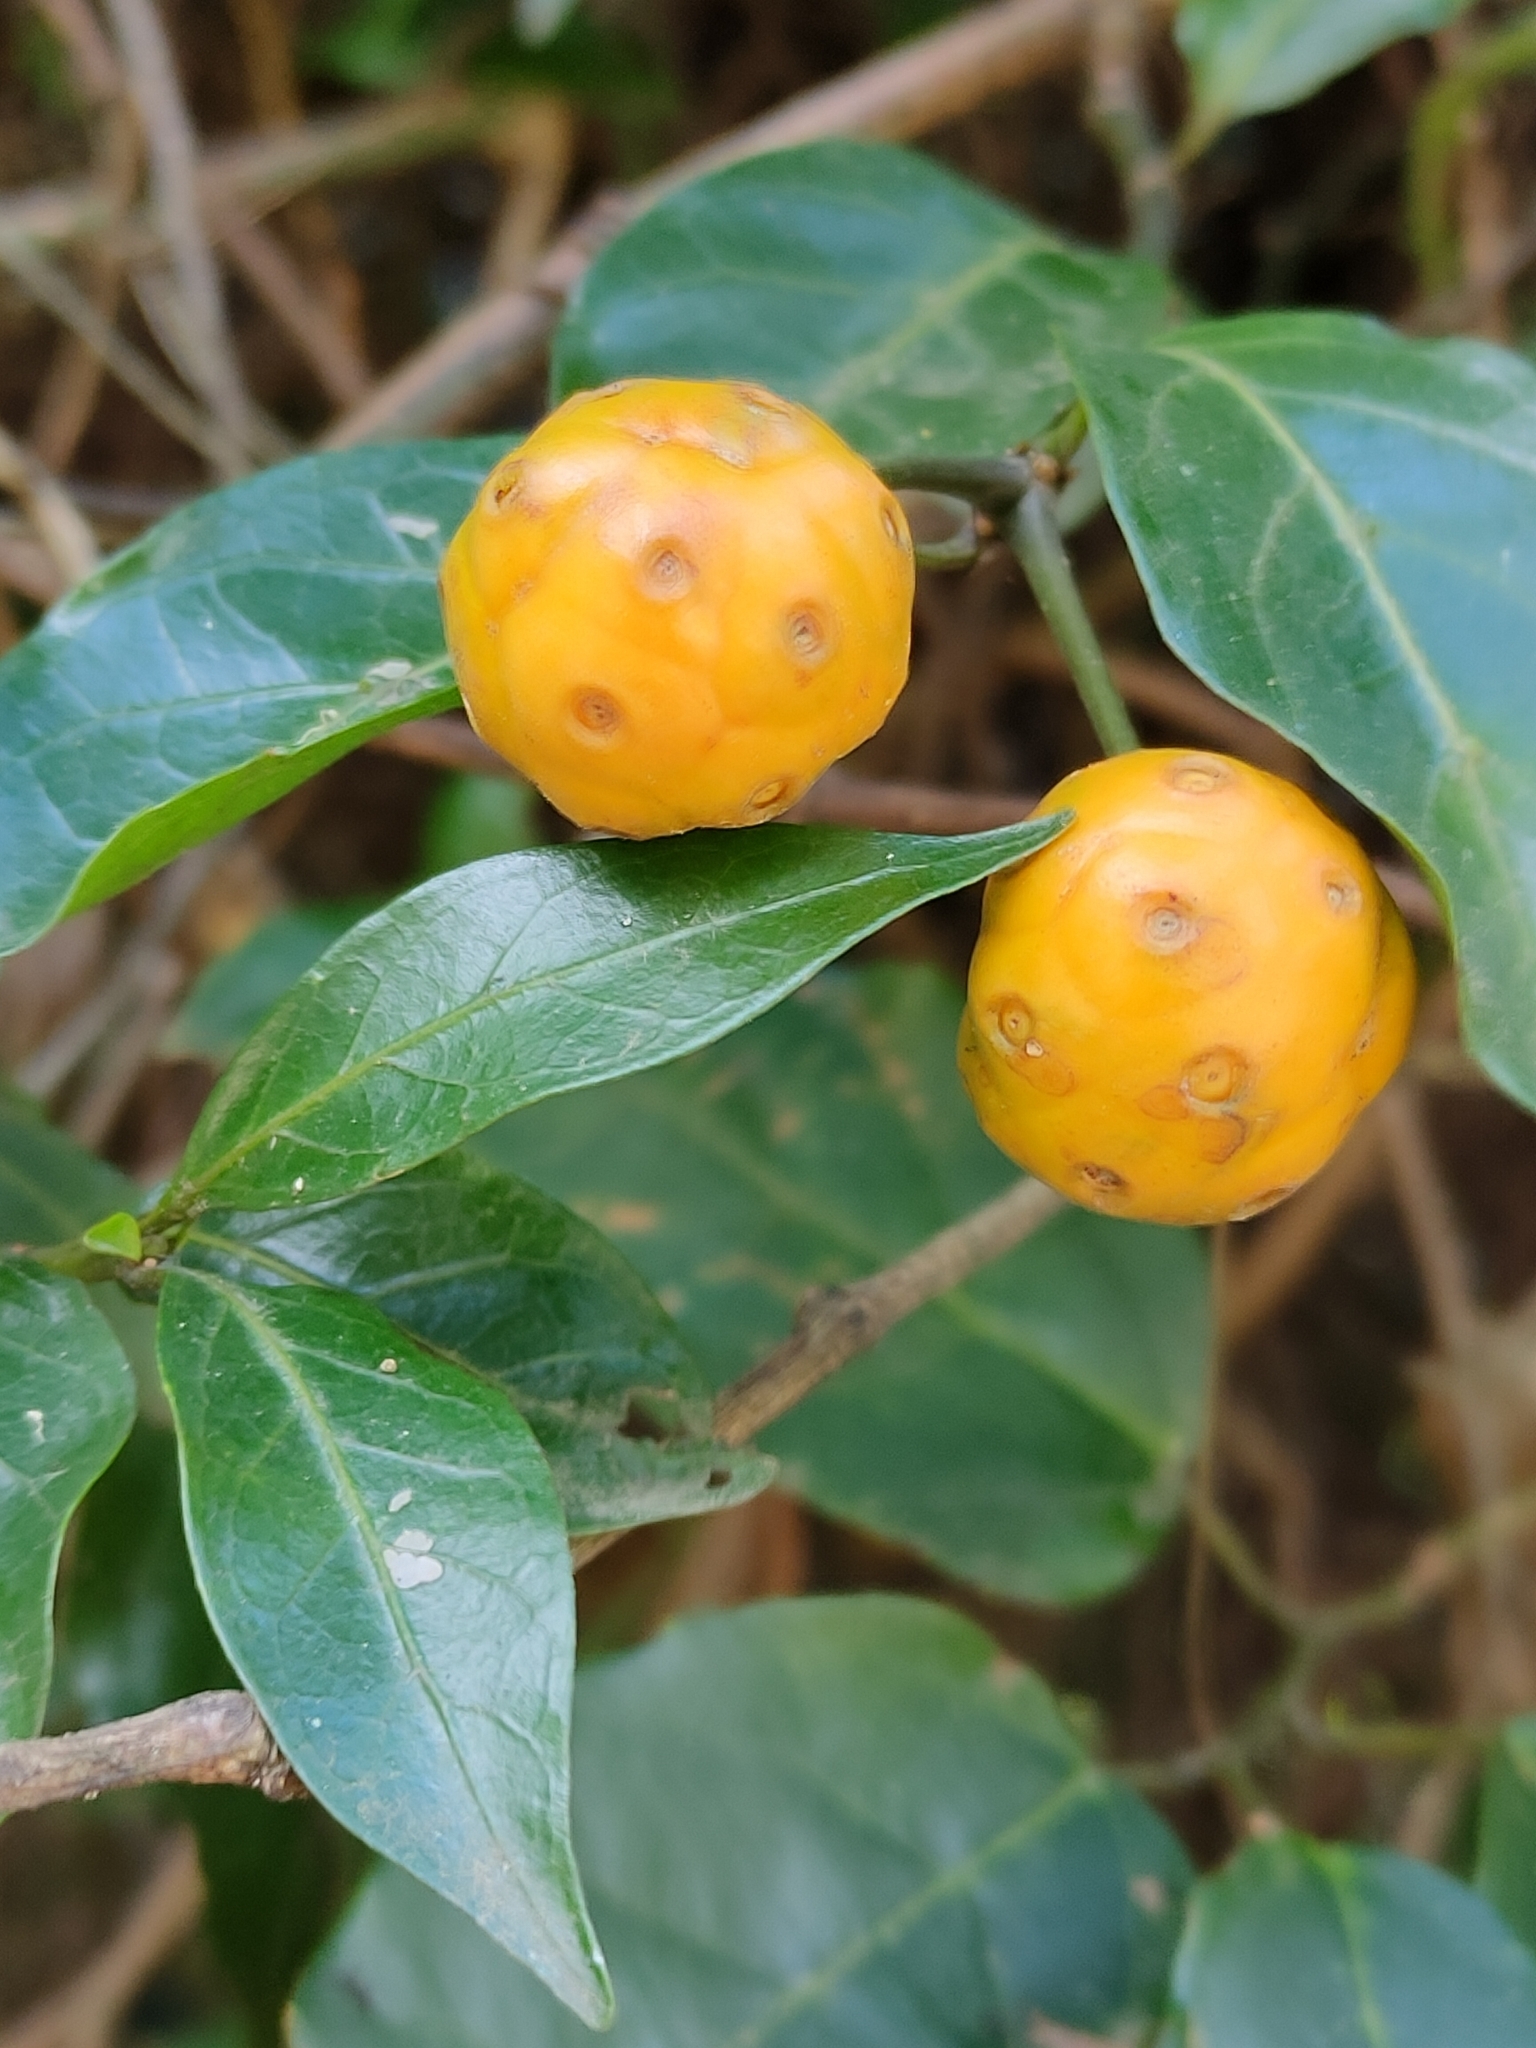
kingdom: Plantae
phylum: Tracheophyta
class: Magnoliopsida
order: Gentianales
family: Rubiaceae
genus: Gynochthodes
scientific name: Gynochthodes jasminoides
